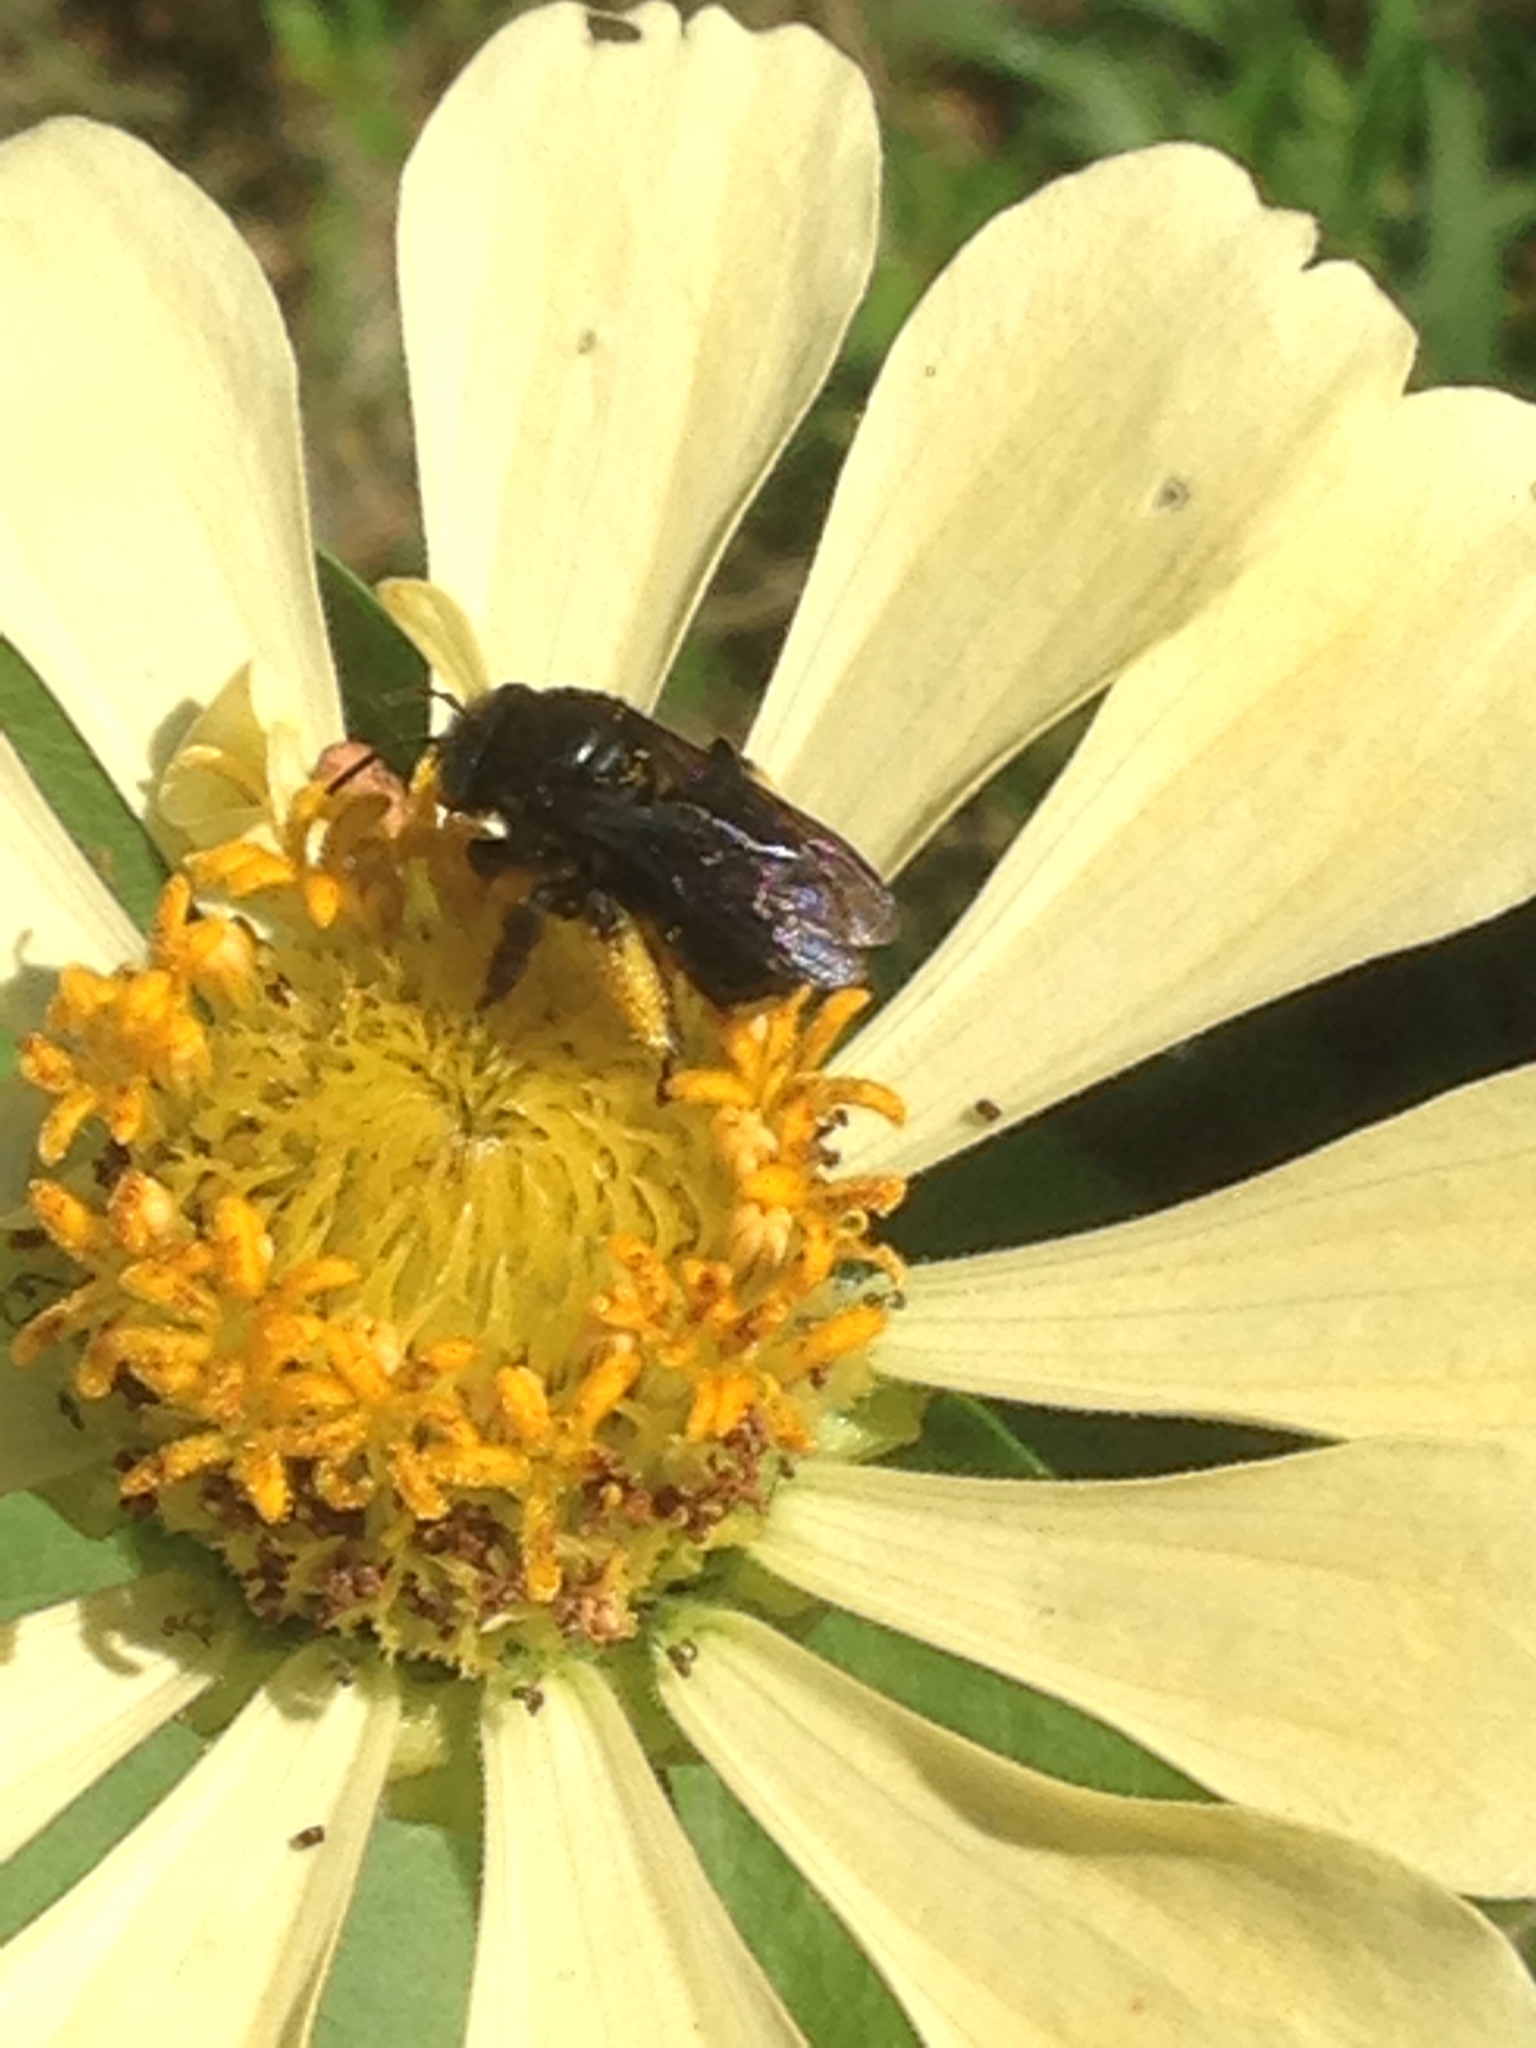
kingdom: Animalia
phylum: Arthropoda
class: Insecta
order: Hymenoptera
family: Apidae
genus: Melissodes
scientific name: Melissodes bimaculatus
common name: Two-spotted long-horned bee
